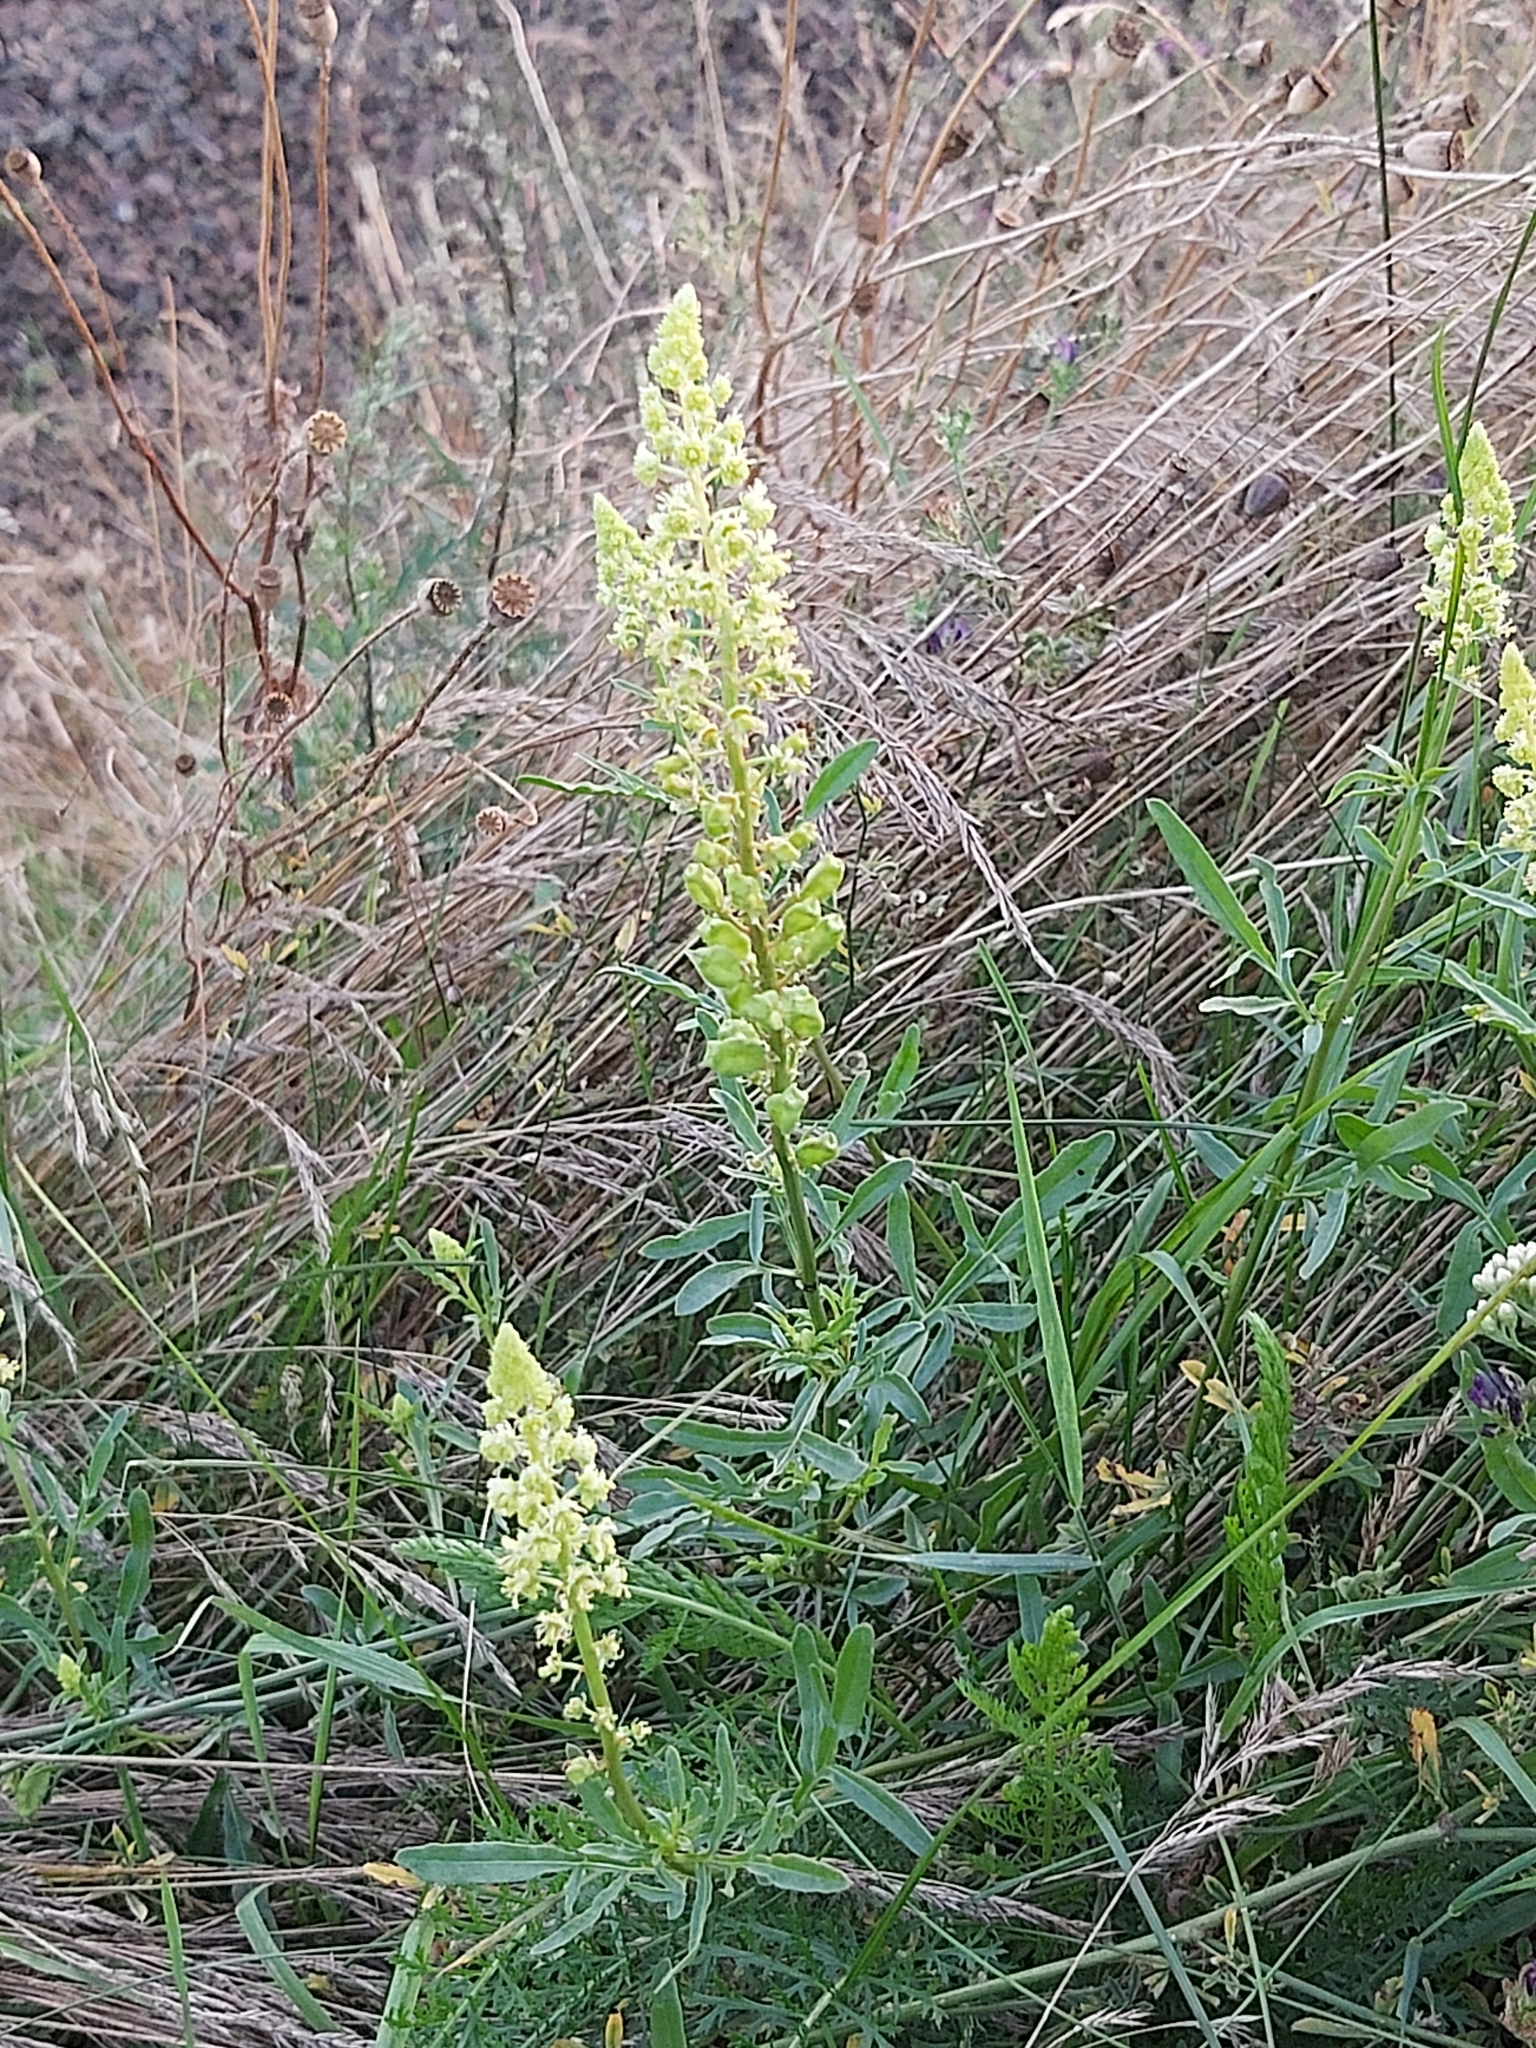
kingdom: Plantae
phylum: Tracheophyta
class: Magnoliopsida
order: Brassicales
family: Resedaceae
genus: Reseda
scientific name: Reseda lutea
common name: Wild mignonette
